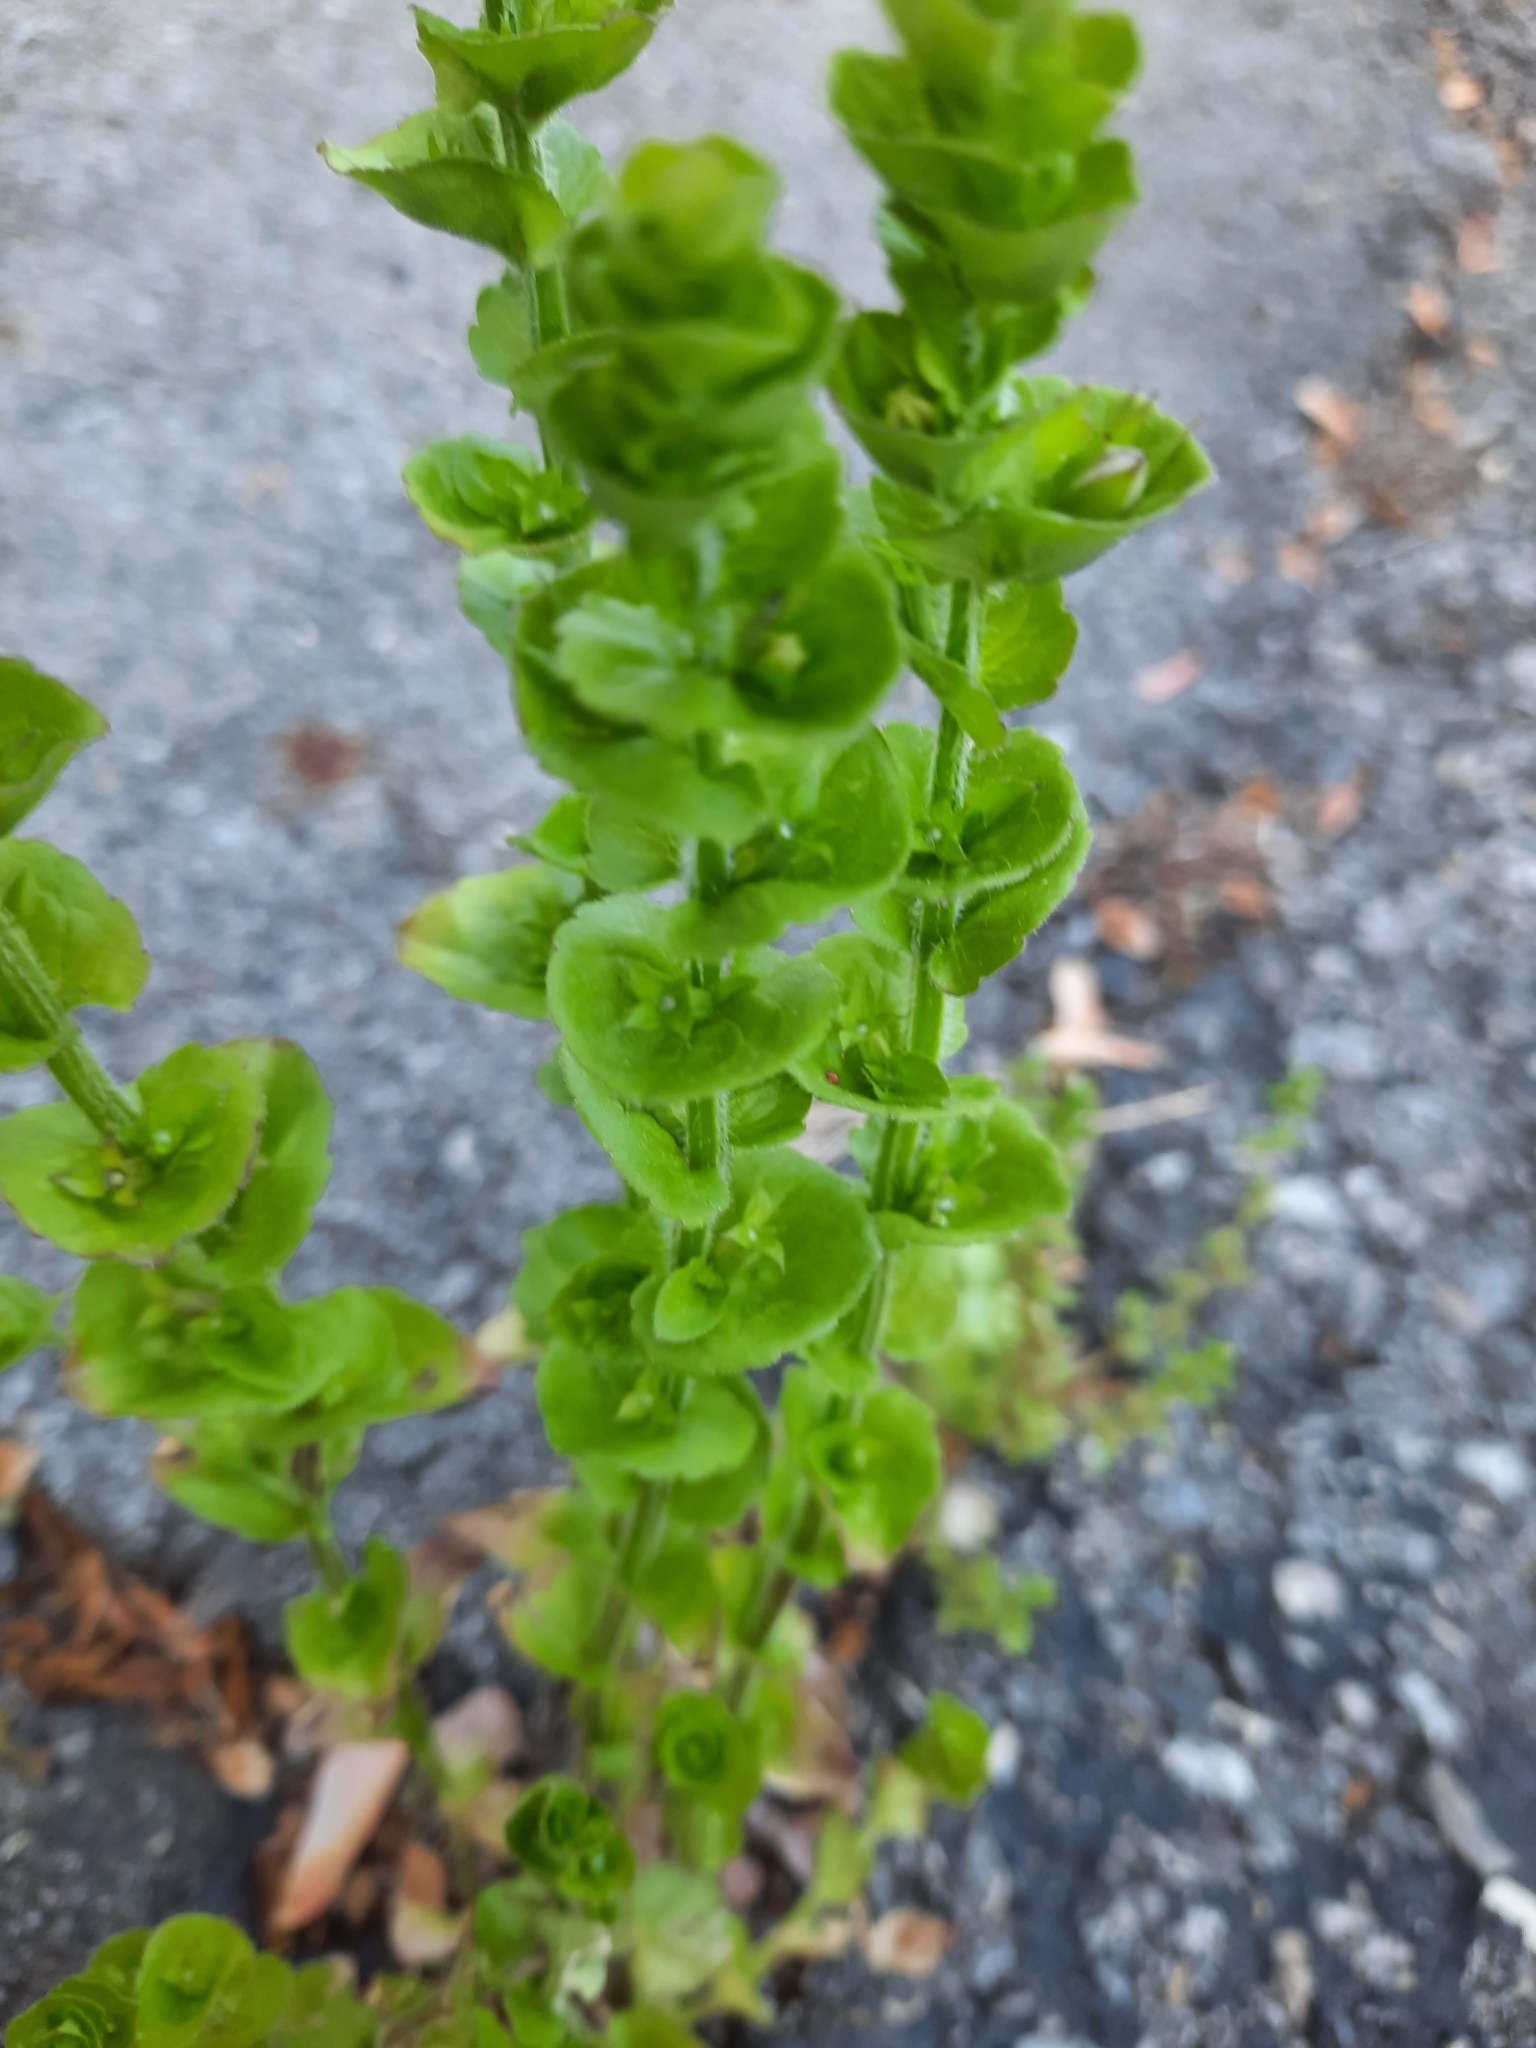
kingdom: Plantae
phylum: Tracheophyta
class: Magnoliopsida
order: Asterales
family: Campanulaceae
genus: Triodanis
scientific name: Triodanis perfoliata
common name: Clasping venus' looking-glass
